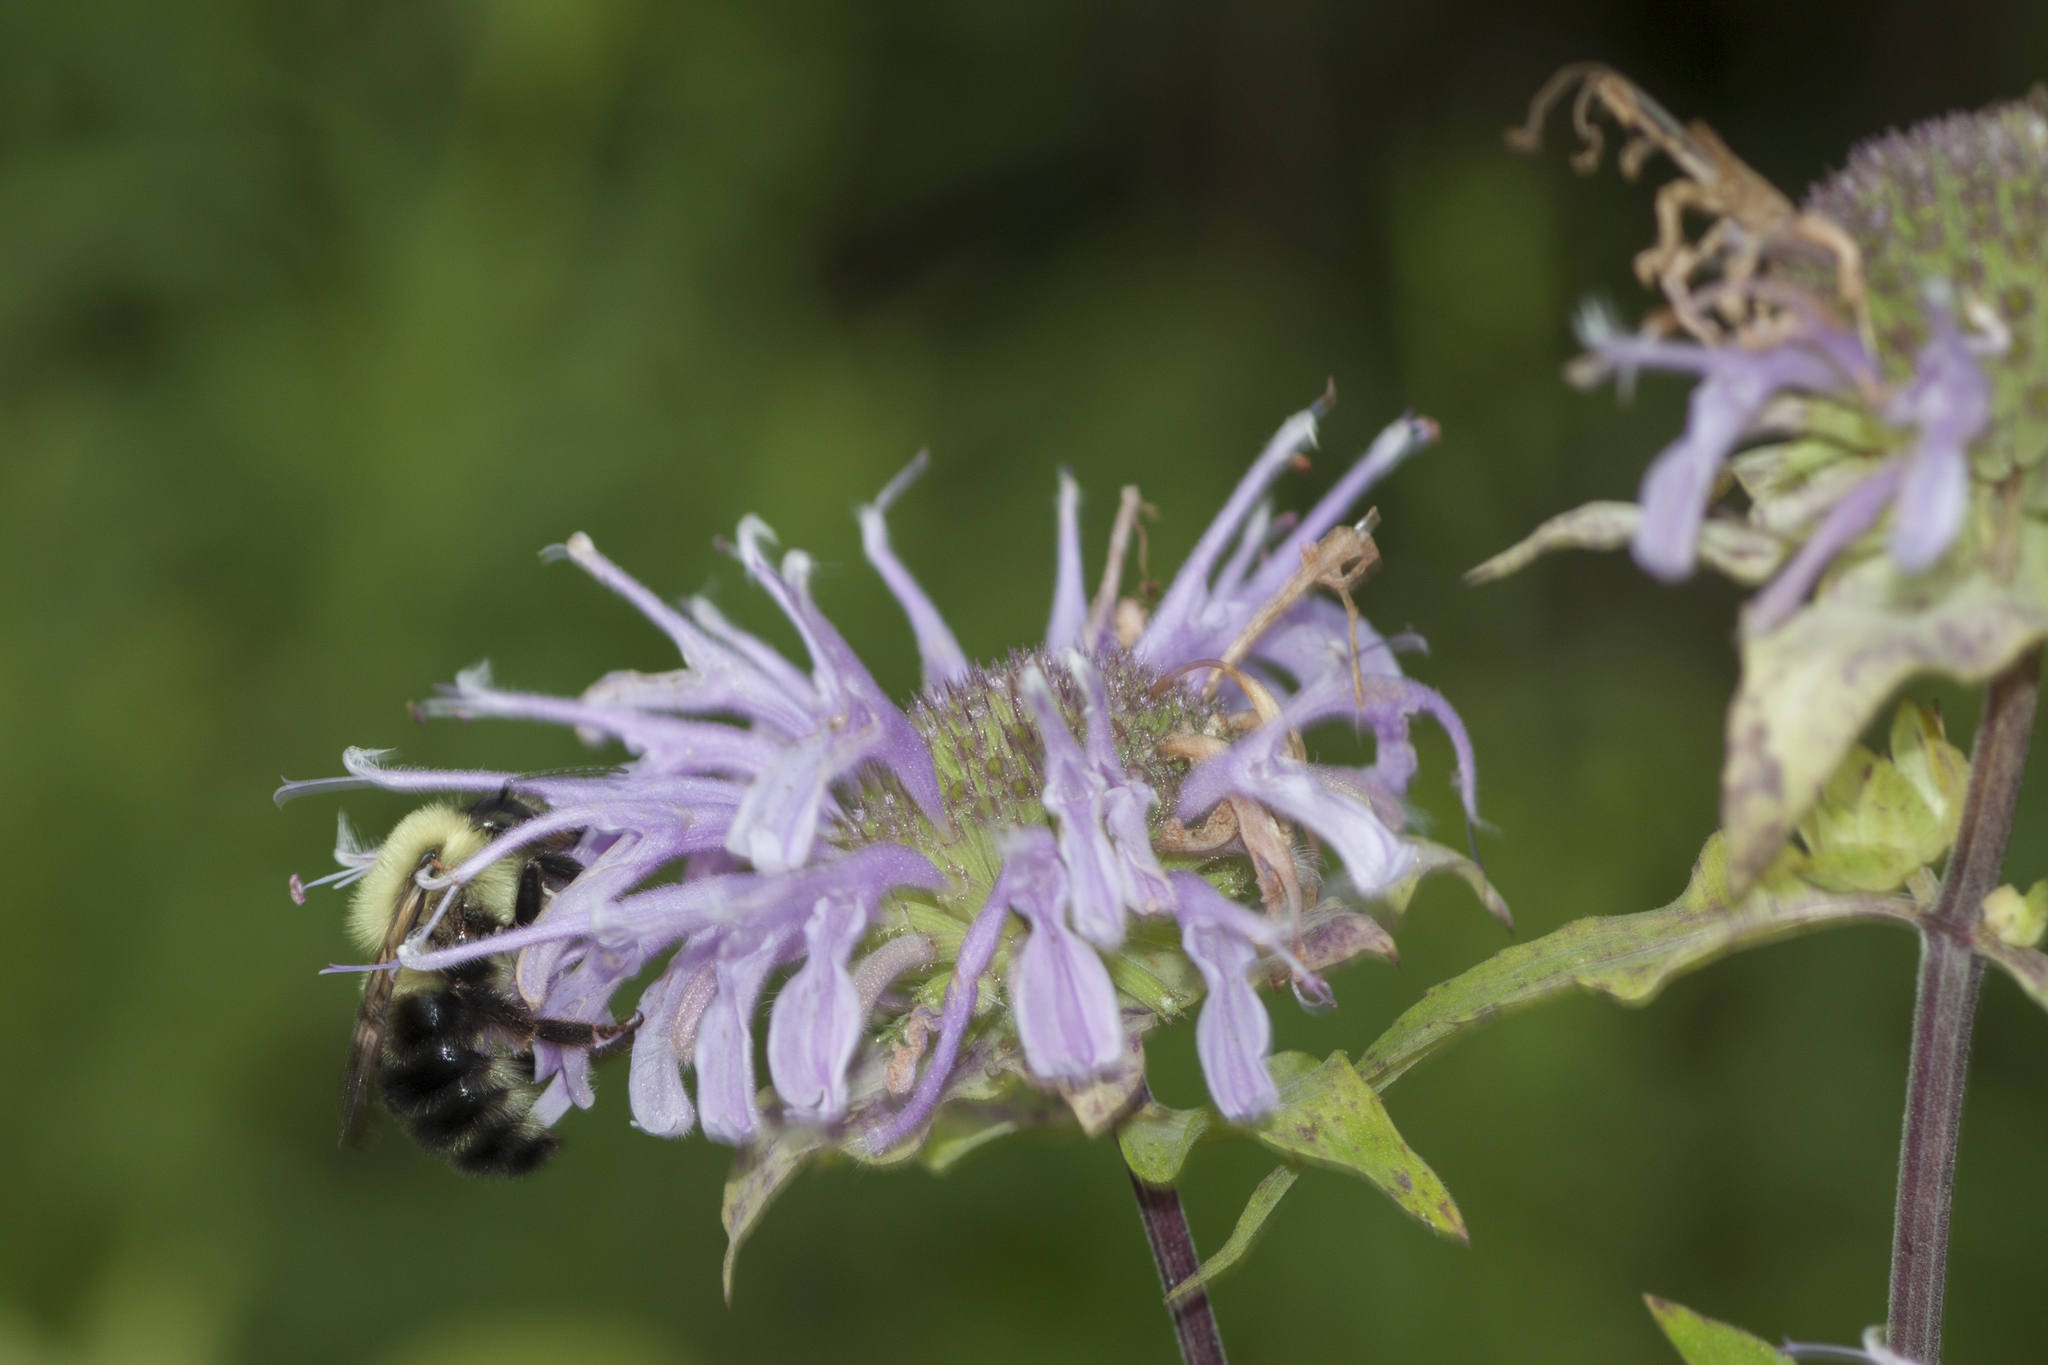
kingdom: Animalia
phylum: Arthropoda
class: Insecta
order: Hymenoptera
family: Apidae
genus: Bombus
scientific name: Bombus bimaculatus
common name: Two-spotted bumble bee
